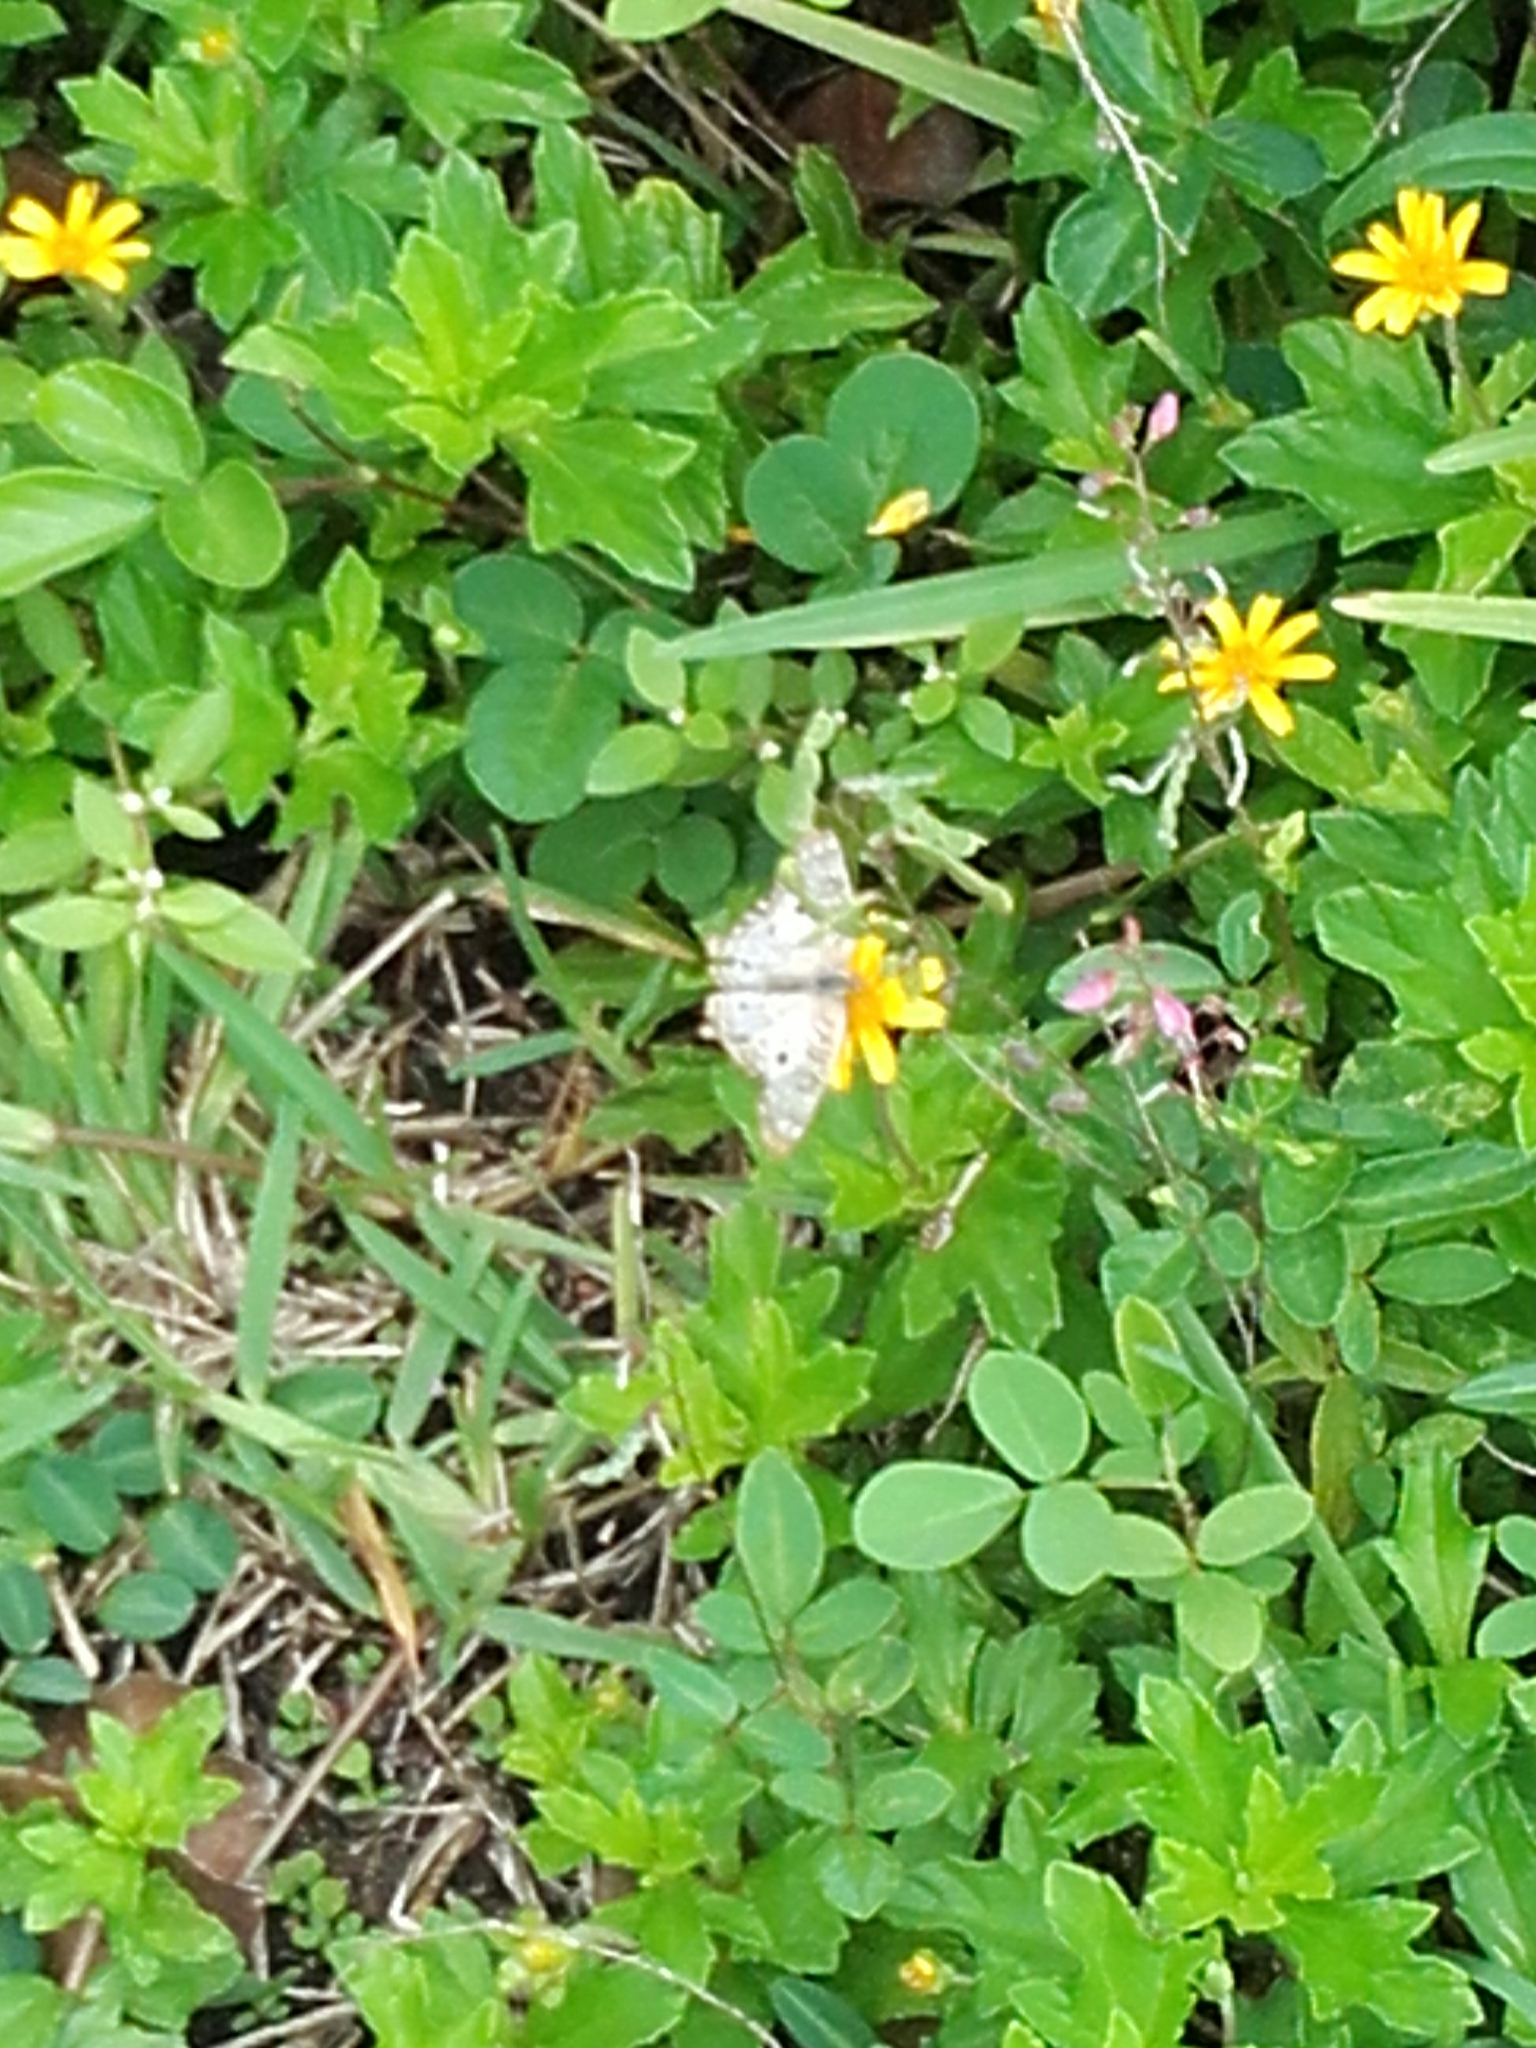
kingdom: Animalia
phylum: Arthropoda
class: Insecta
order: Lepidoptera
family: Nymphalidae
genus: Anartia
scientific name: Anartia jatrophae
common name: White peacock
